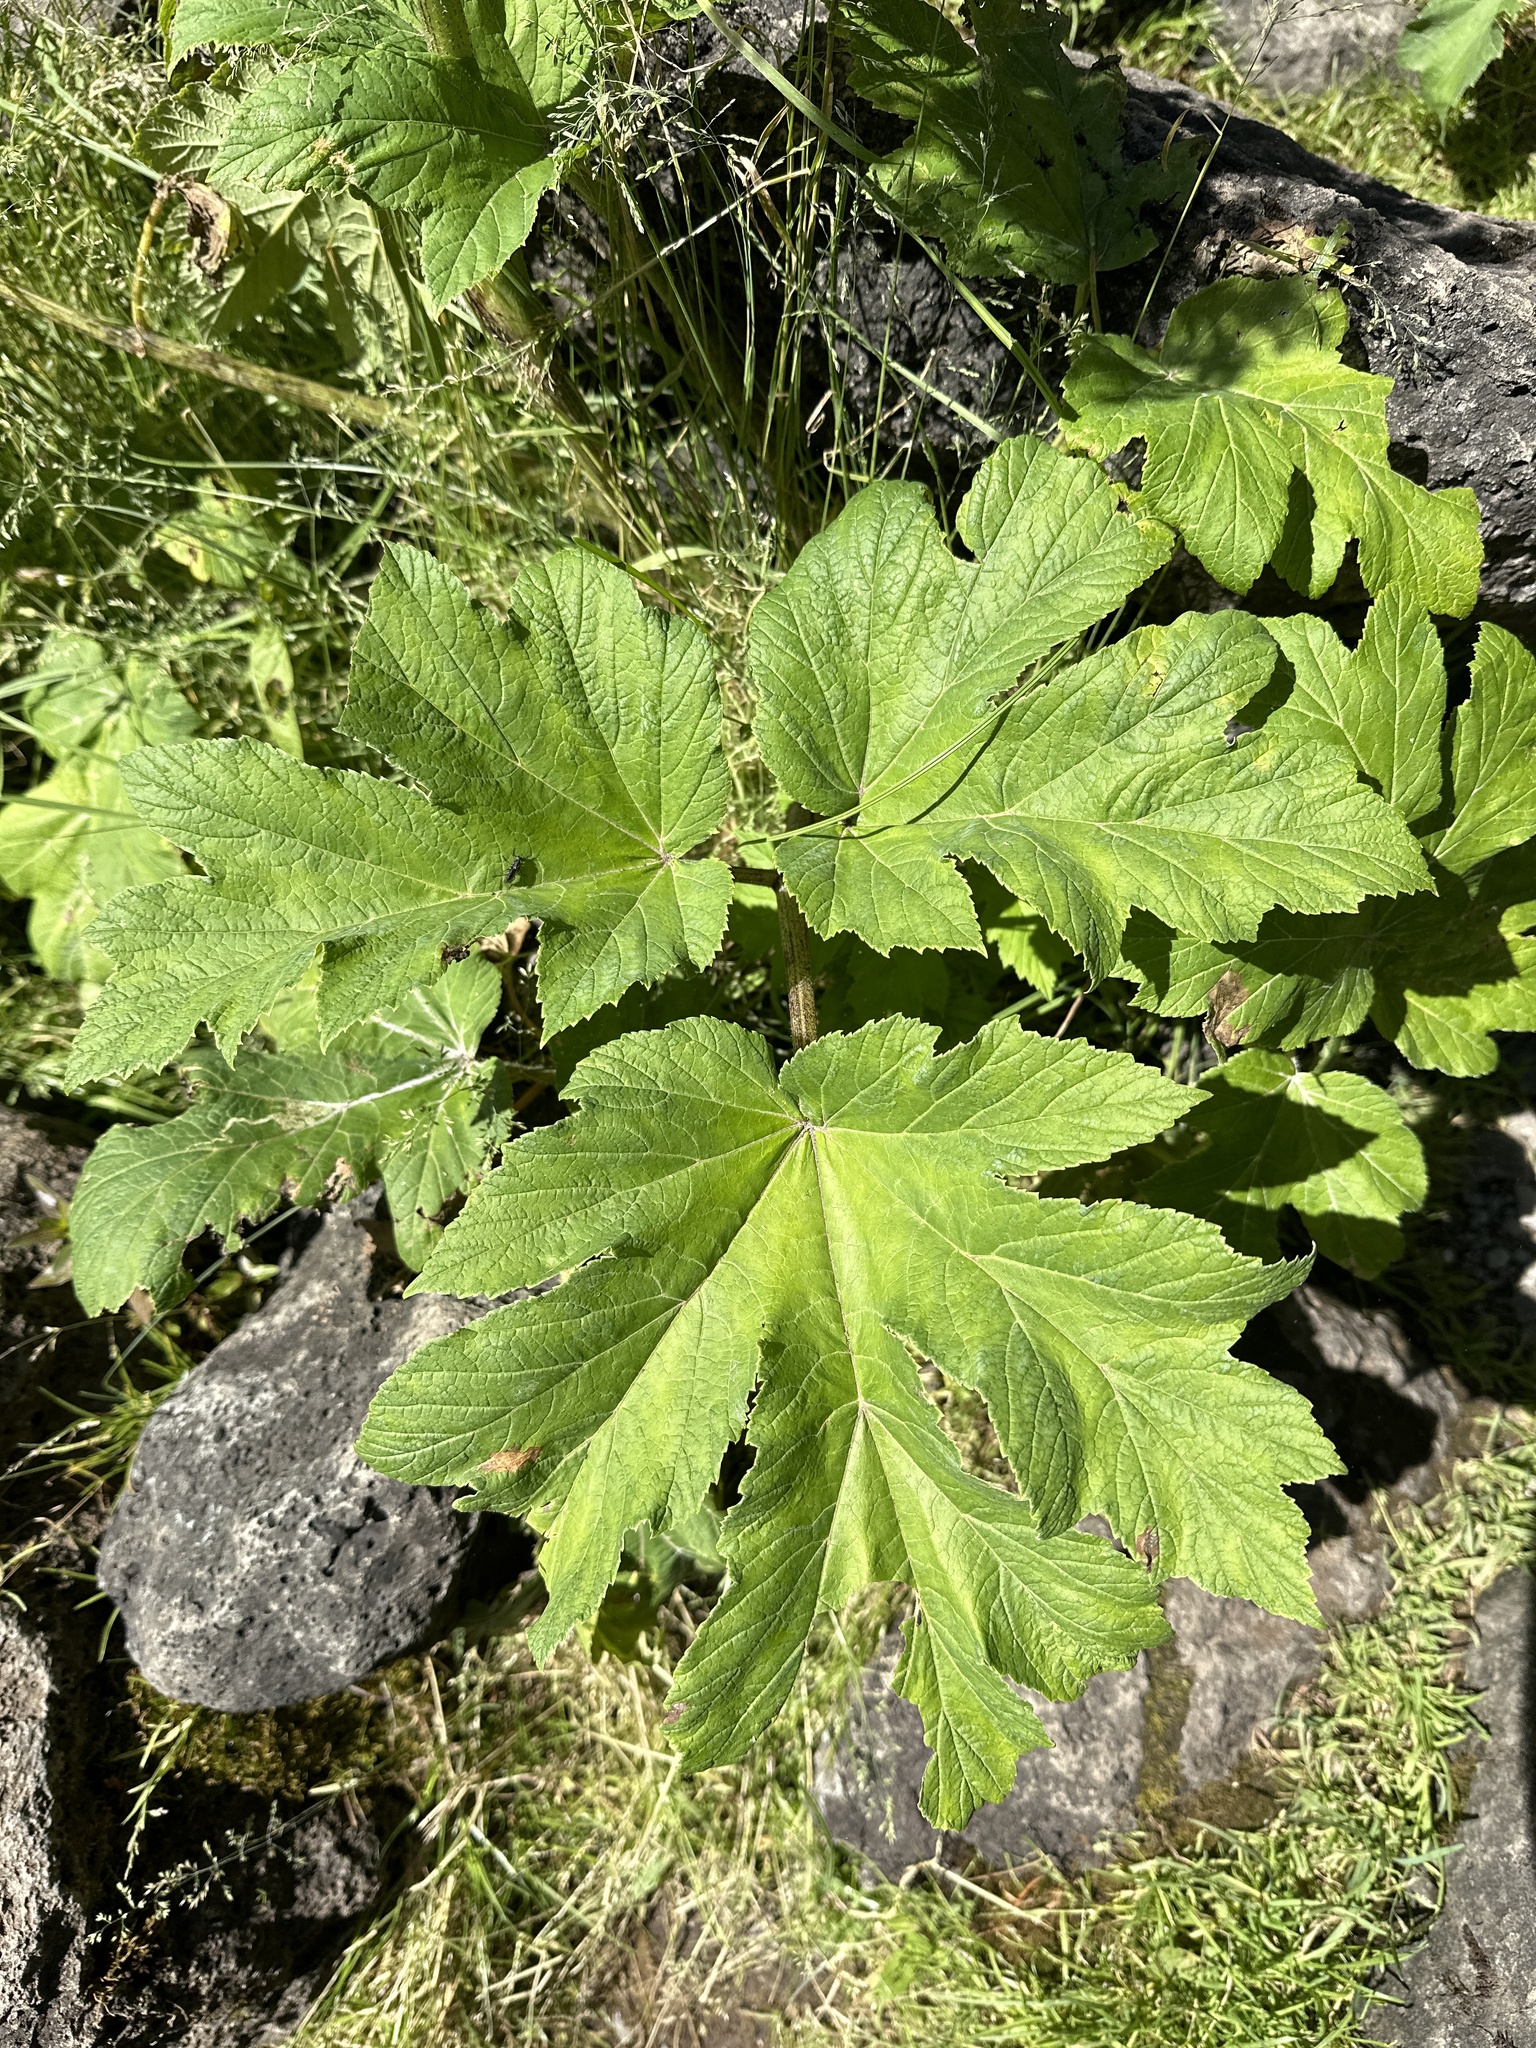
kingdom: Plantae
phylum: Tracheophyta
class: Magnoliopsida
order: Apiales
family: Apiaceae
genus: Heracleum
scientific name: Heracleum maximum
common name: American cow parsnip
